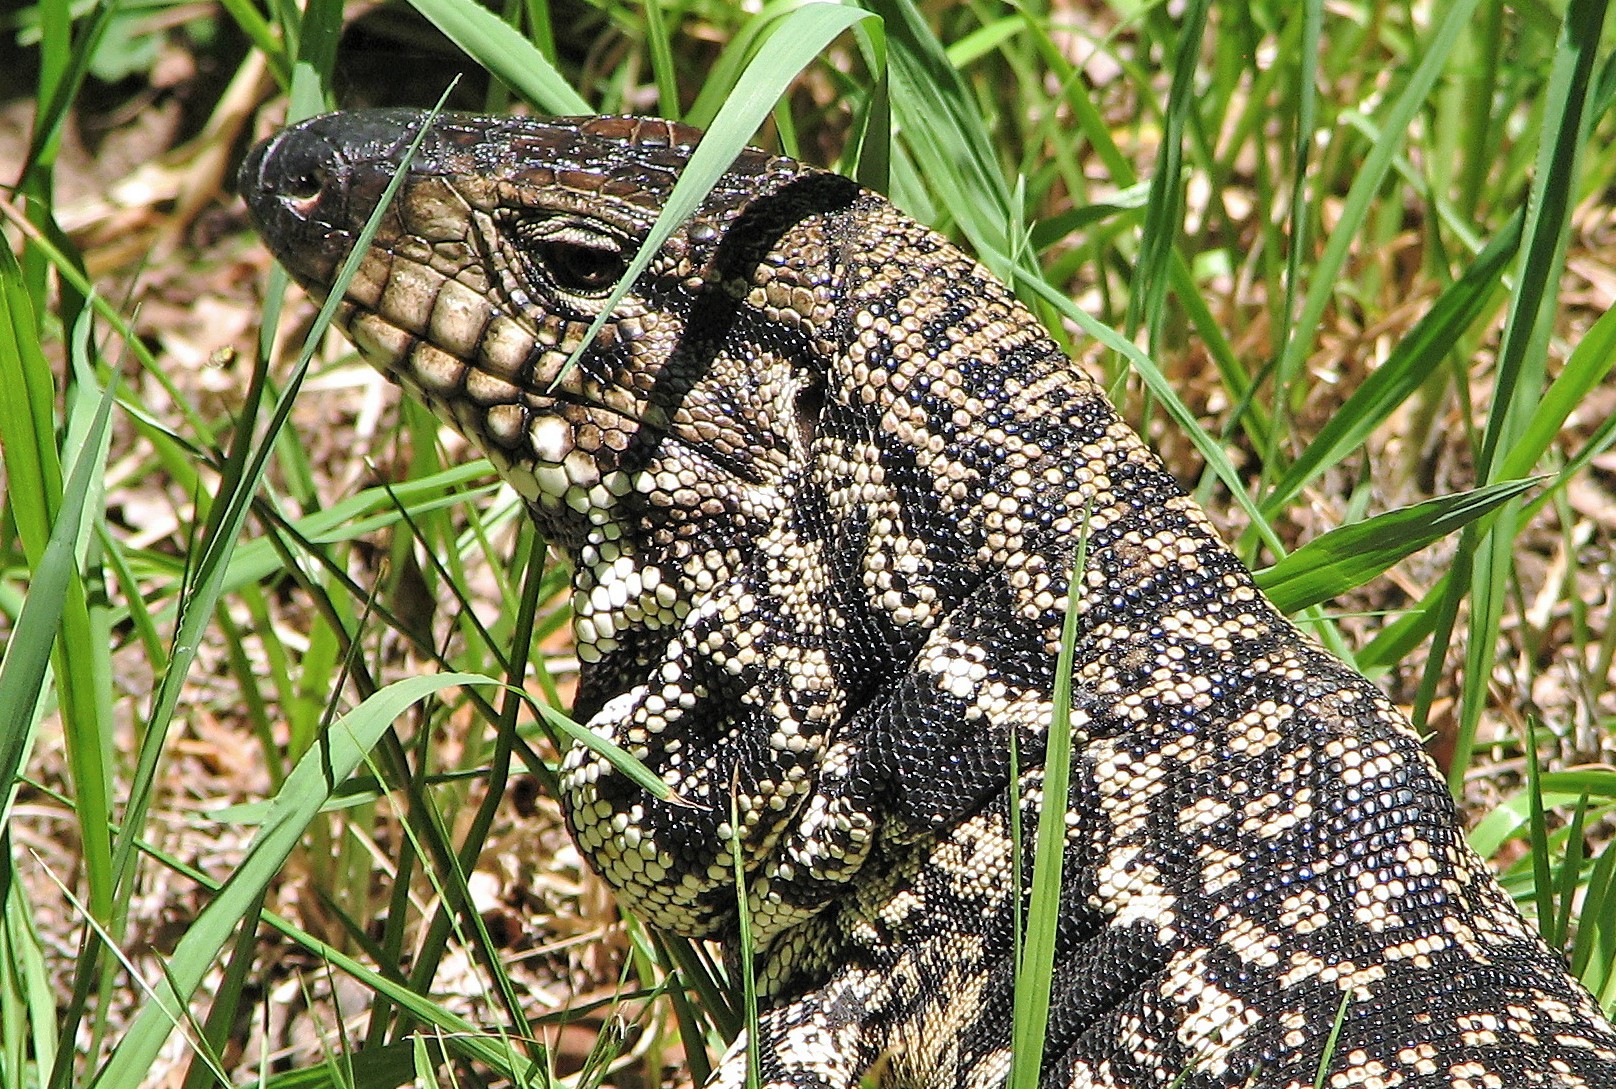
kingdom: Animalia
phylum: Chordata
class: Squamata
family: Teiidae
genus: Salvator
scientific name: Salvator merianae
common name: Argentine black and white tegu
